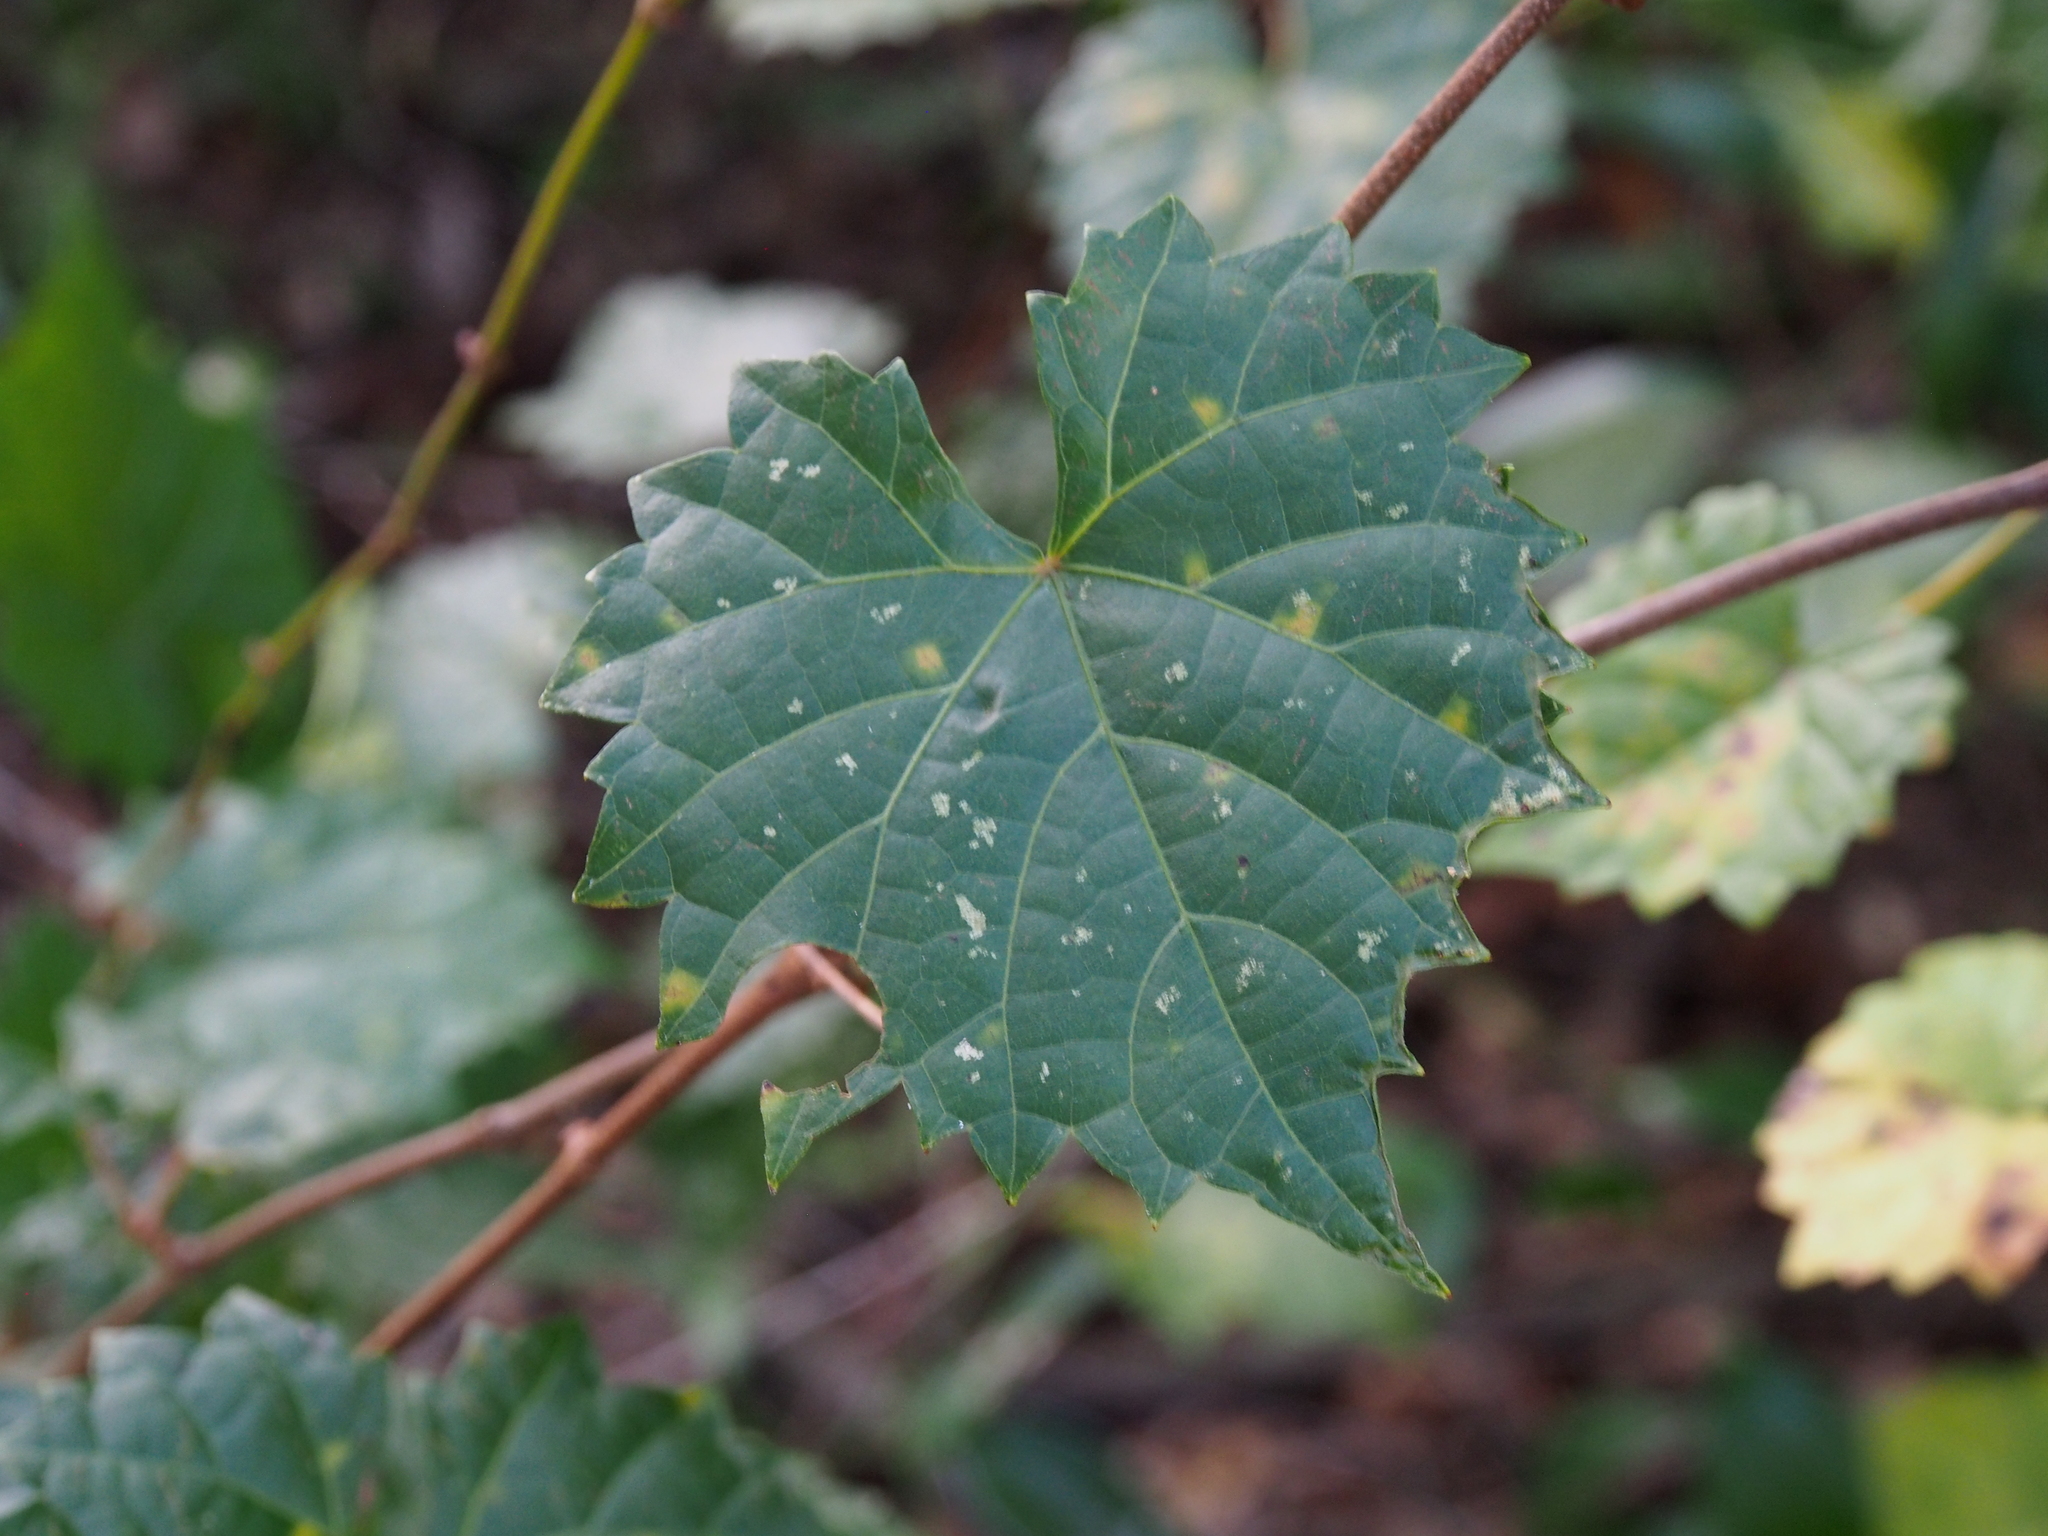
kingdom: Plantae
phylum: Tracheophyta
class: Magnoliopsida
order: Vitales
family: Vitaceae
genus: Vitis
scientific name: Vitis rotundifolia
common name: Muscadine grape
